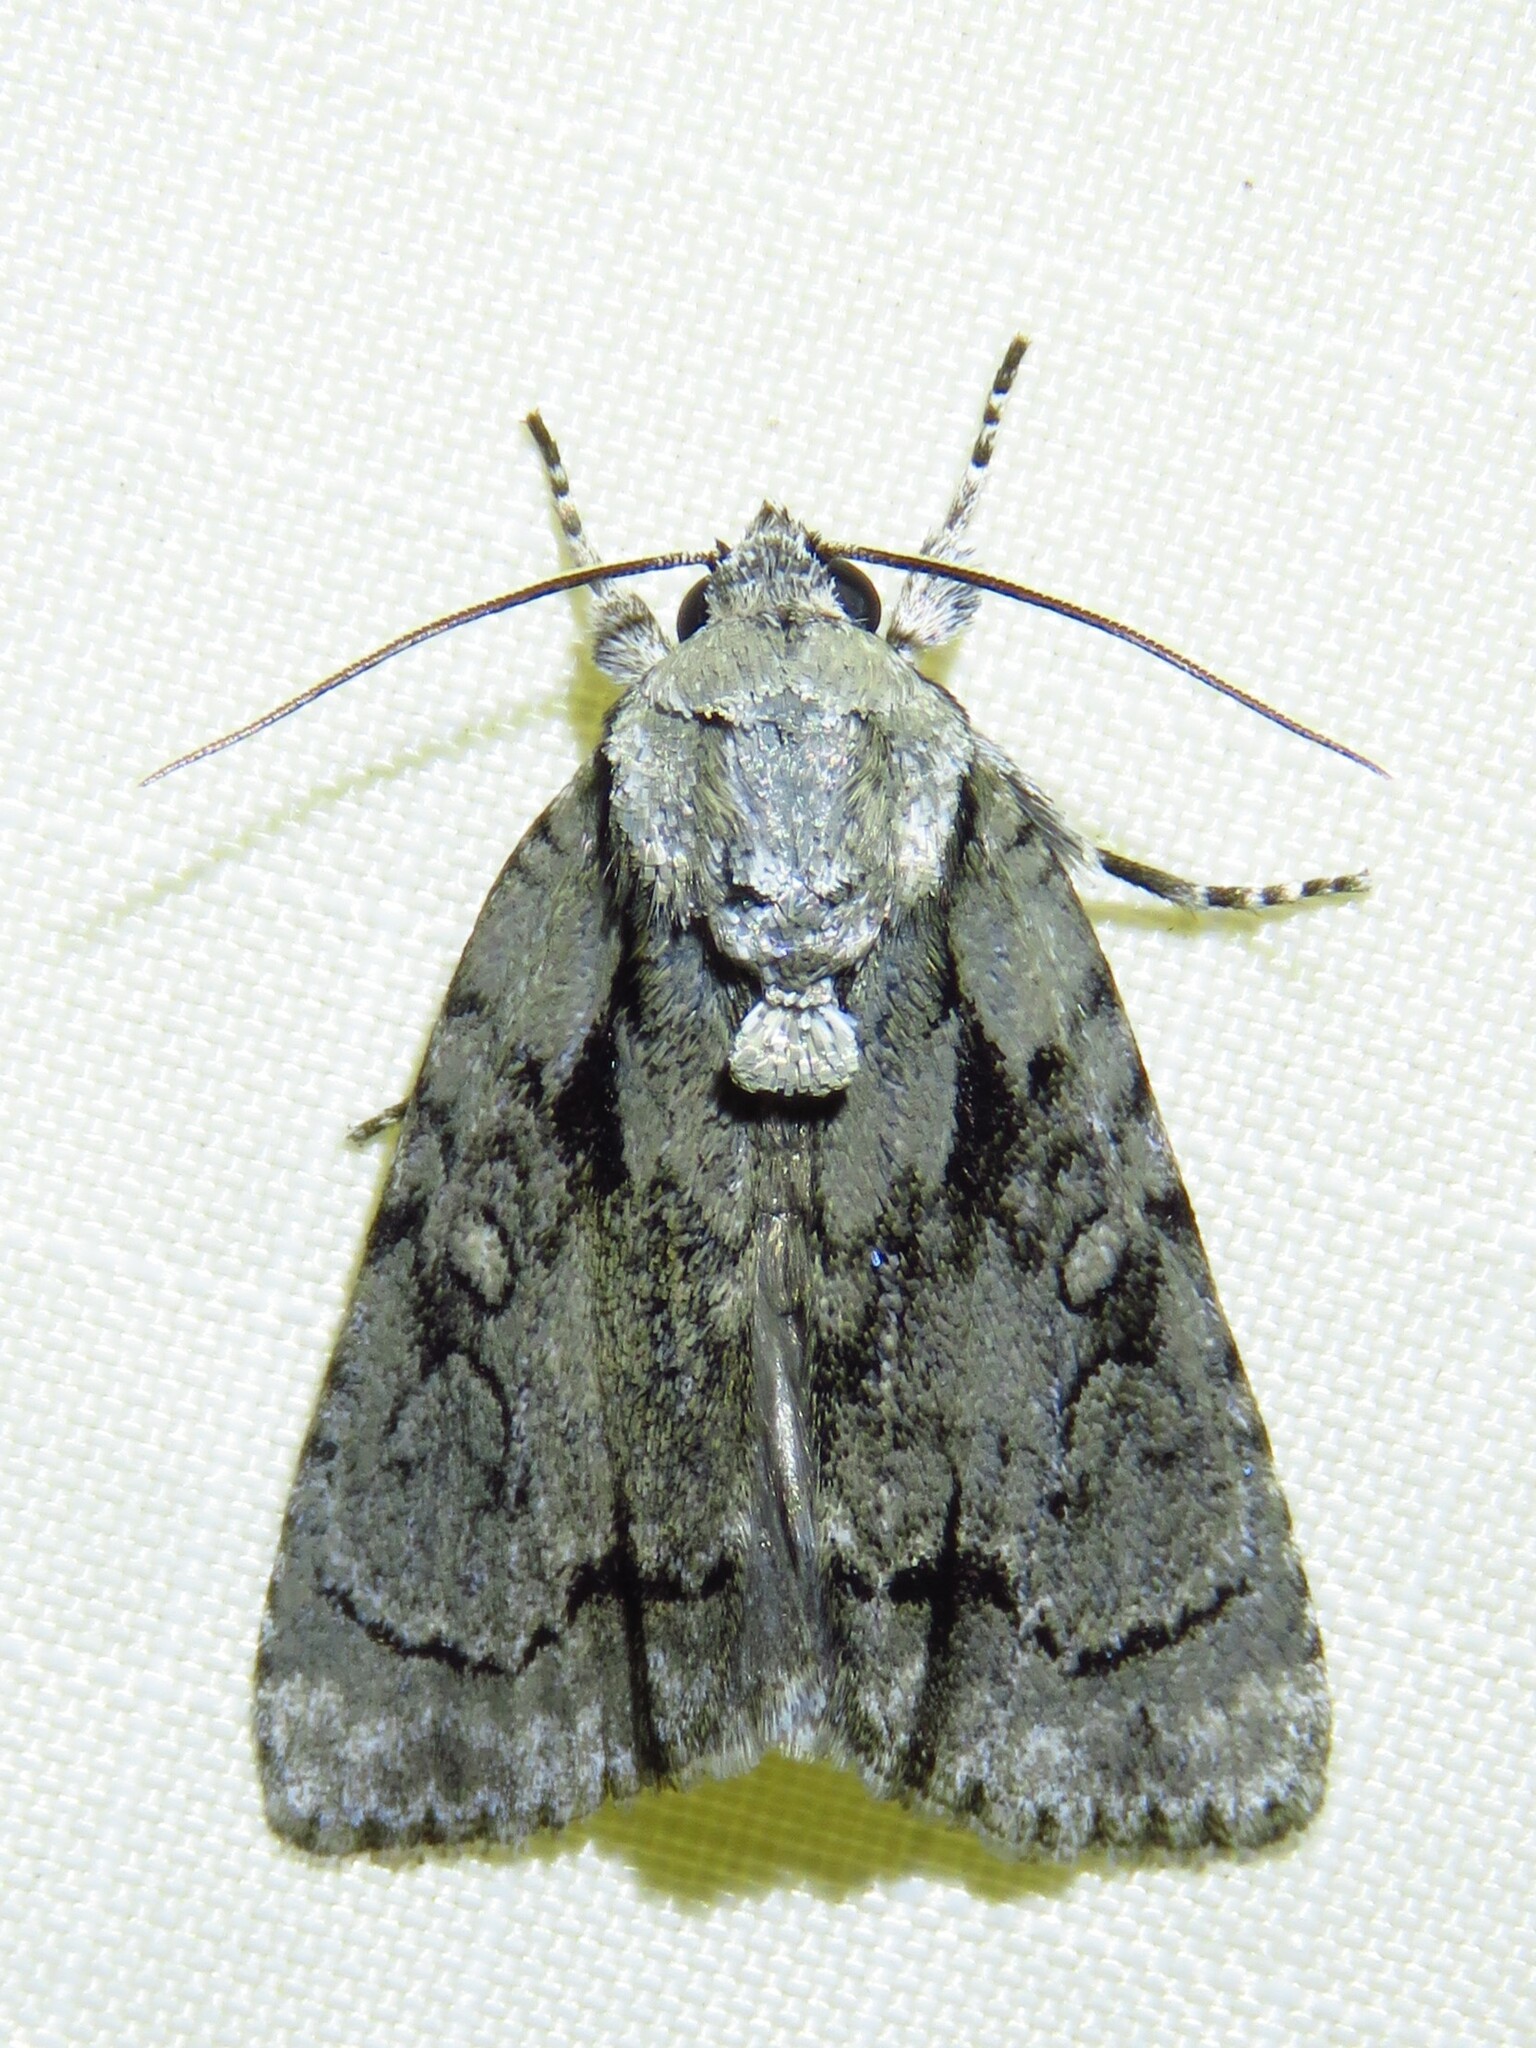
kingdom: Animalia
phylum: Arthropoda
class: Insecta
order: Lepidoptera
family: Noctuidae
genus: Acronicta
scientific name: Acronicta vinnula
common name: Delightful dagger
